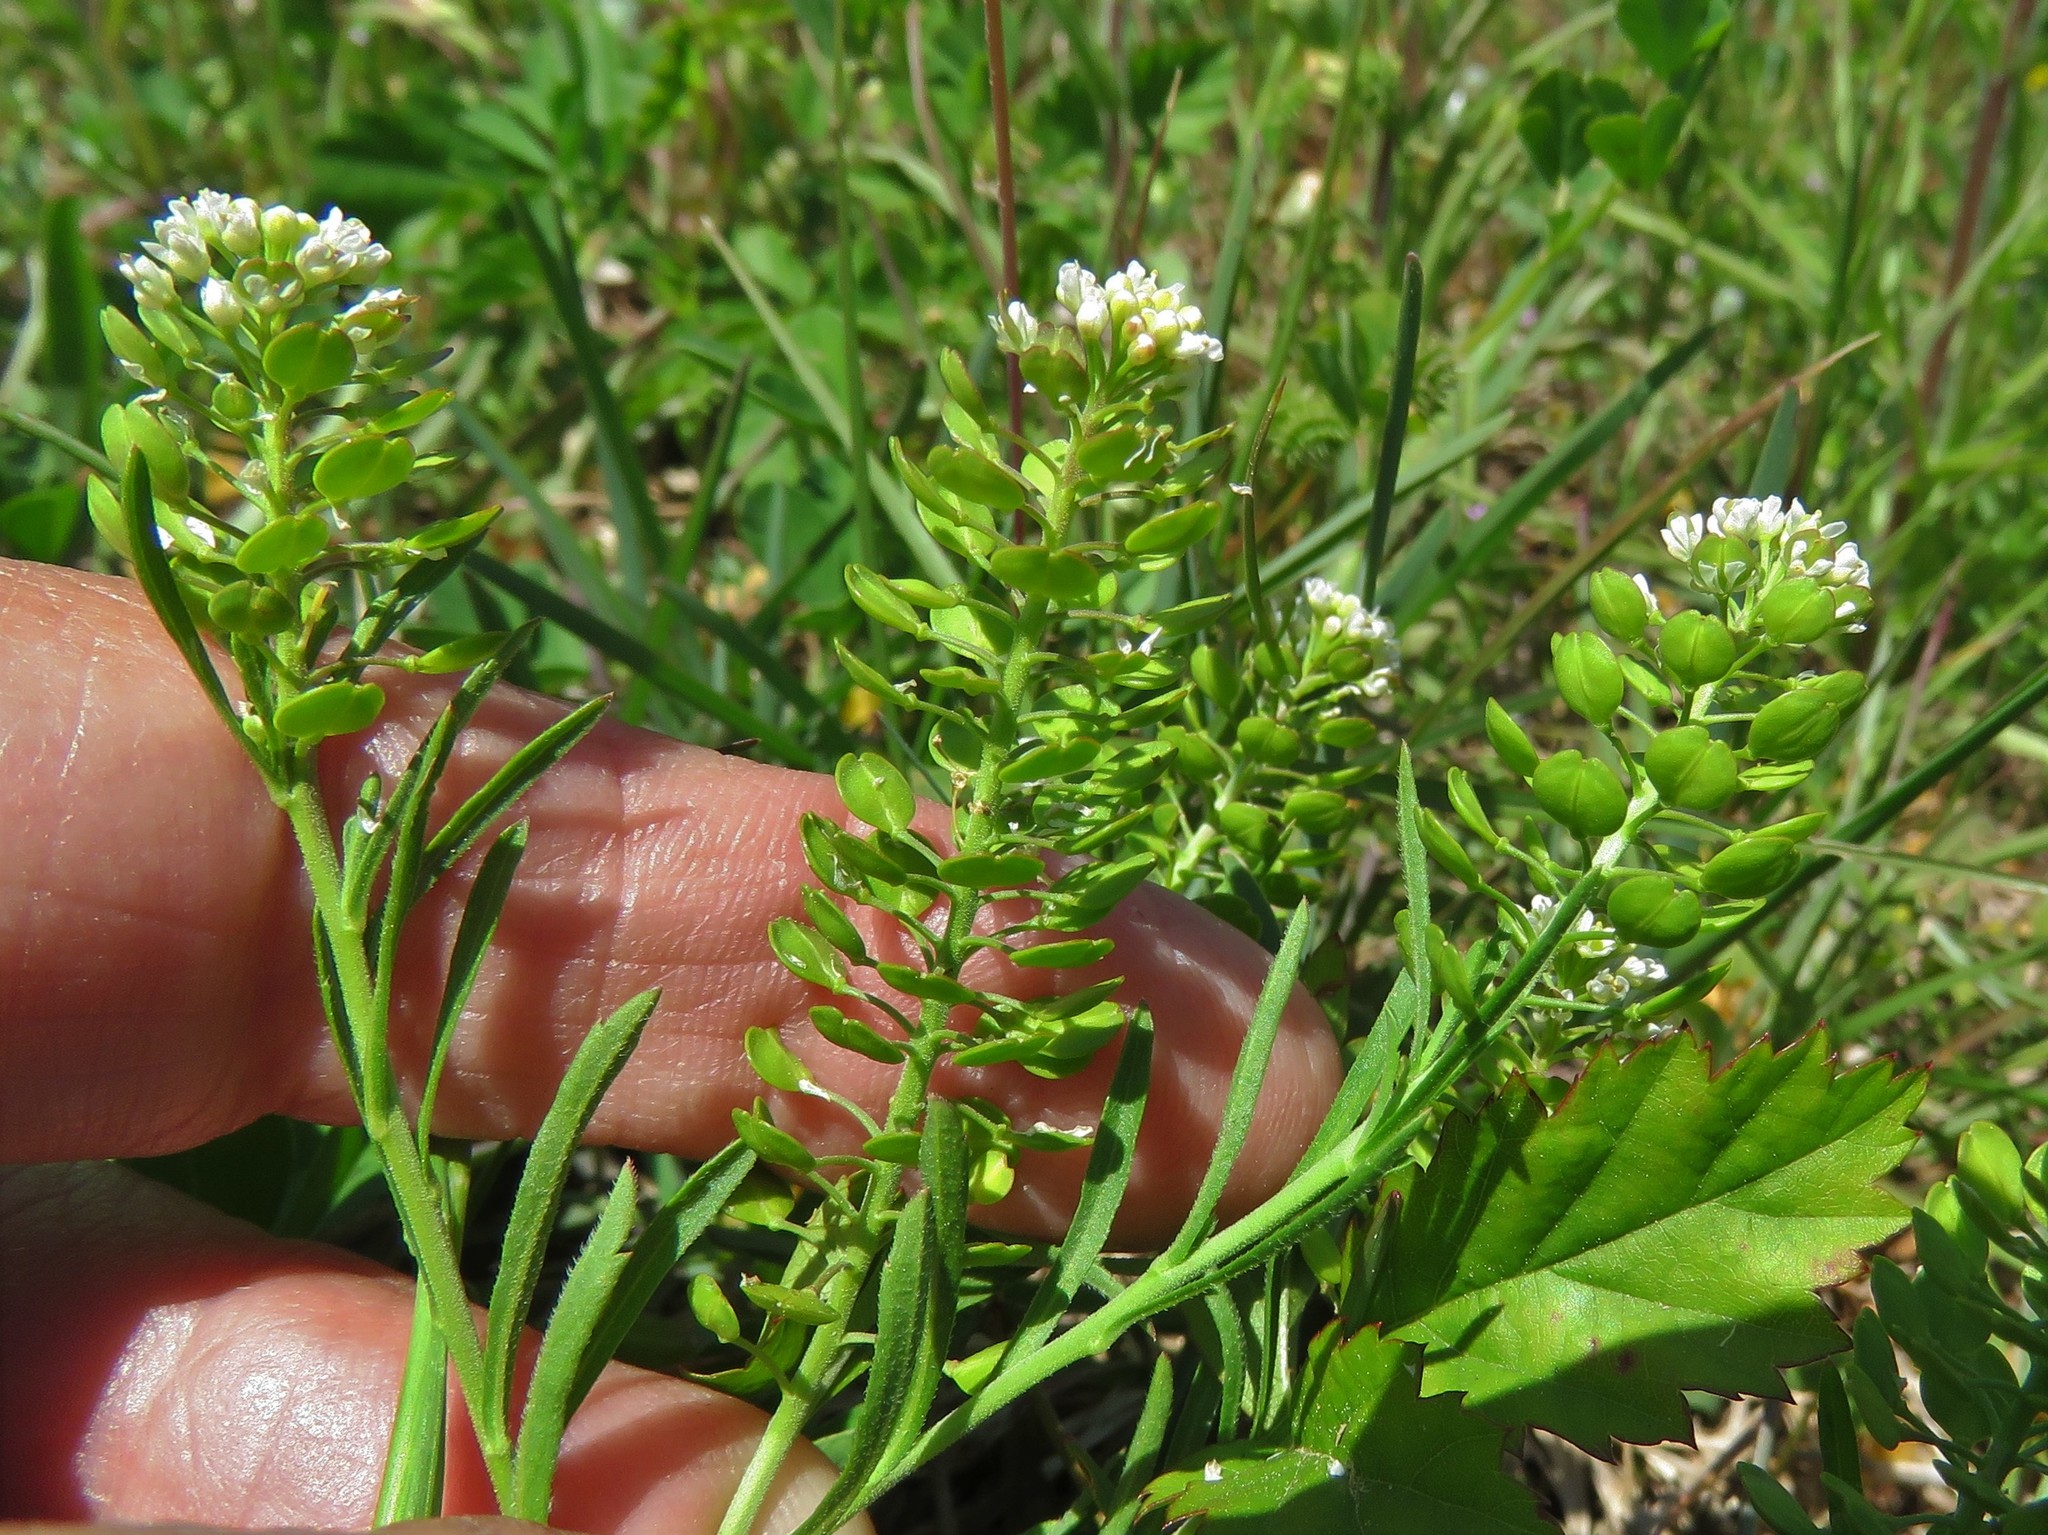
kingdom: Plantae
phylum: Tracheophyta
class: Magnoliopsida
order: Brassicales
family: Brassicaceae
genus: Lepidium
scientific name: Lepidium virginicum
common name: Least pepperwort
